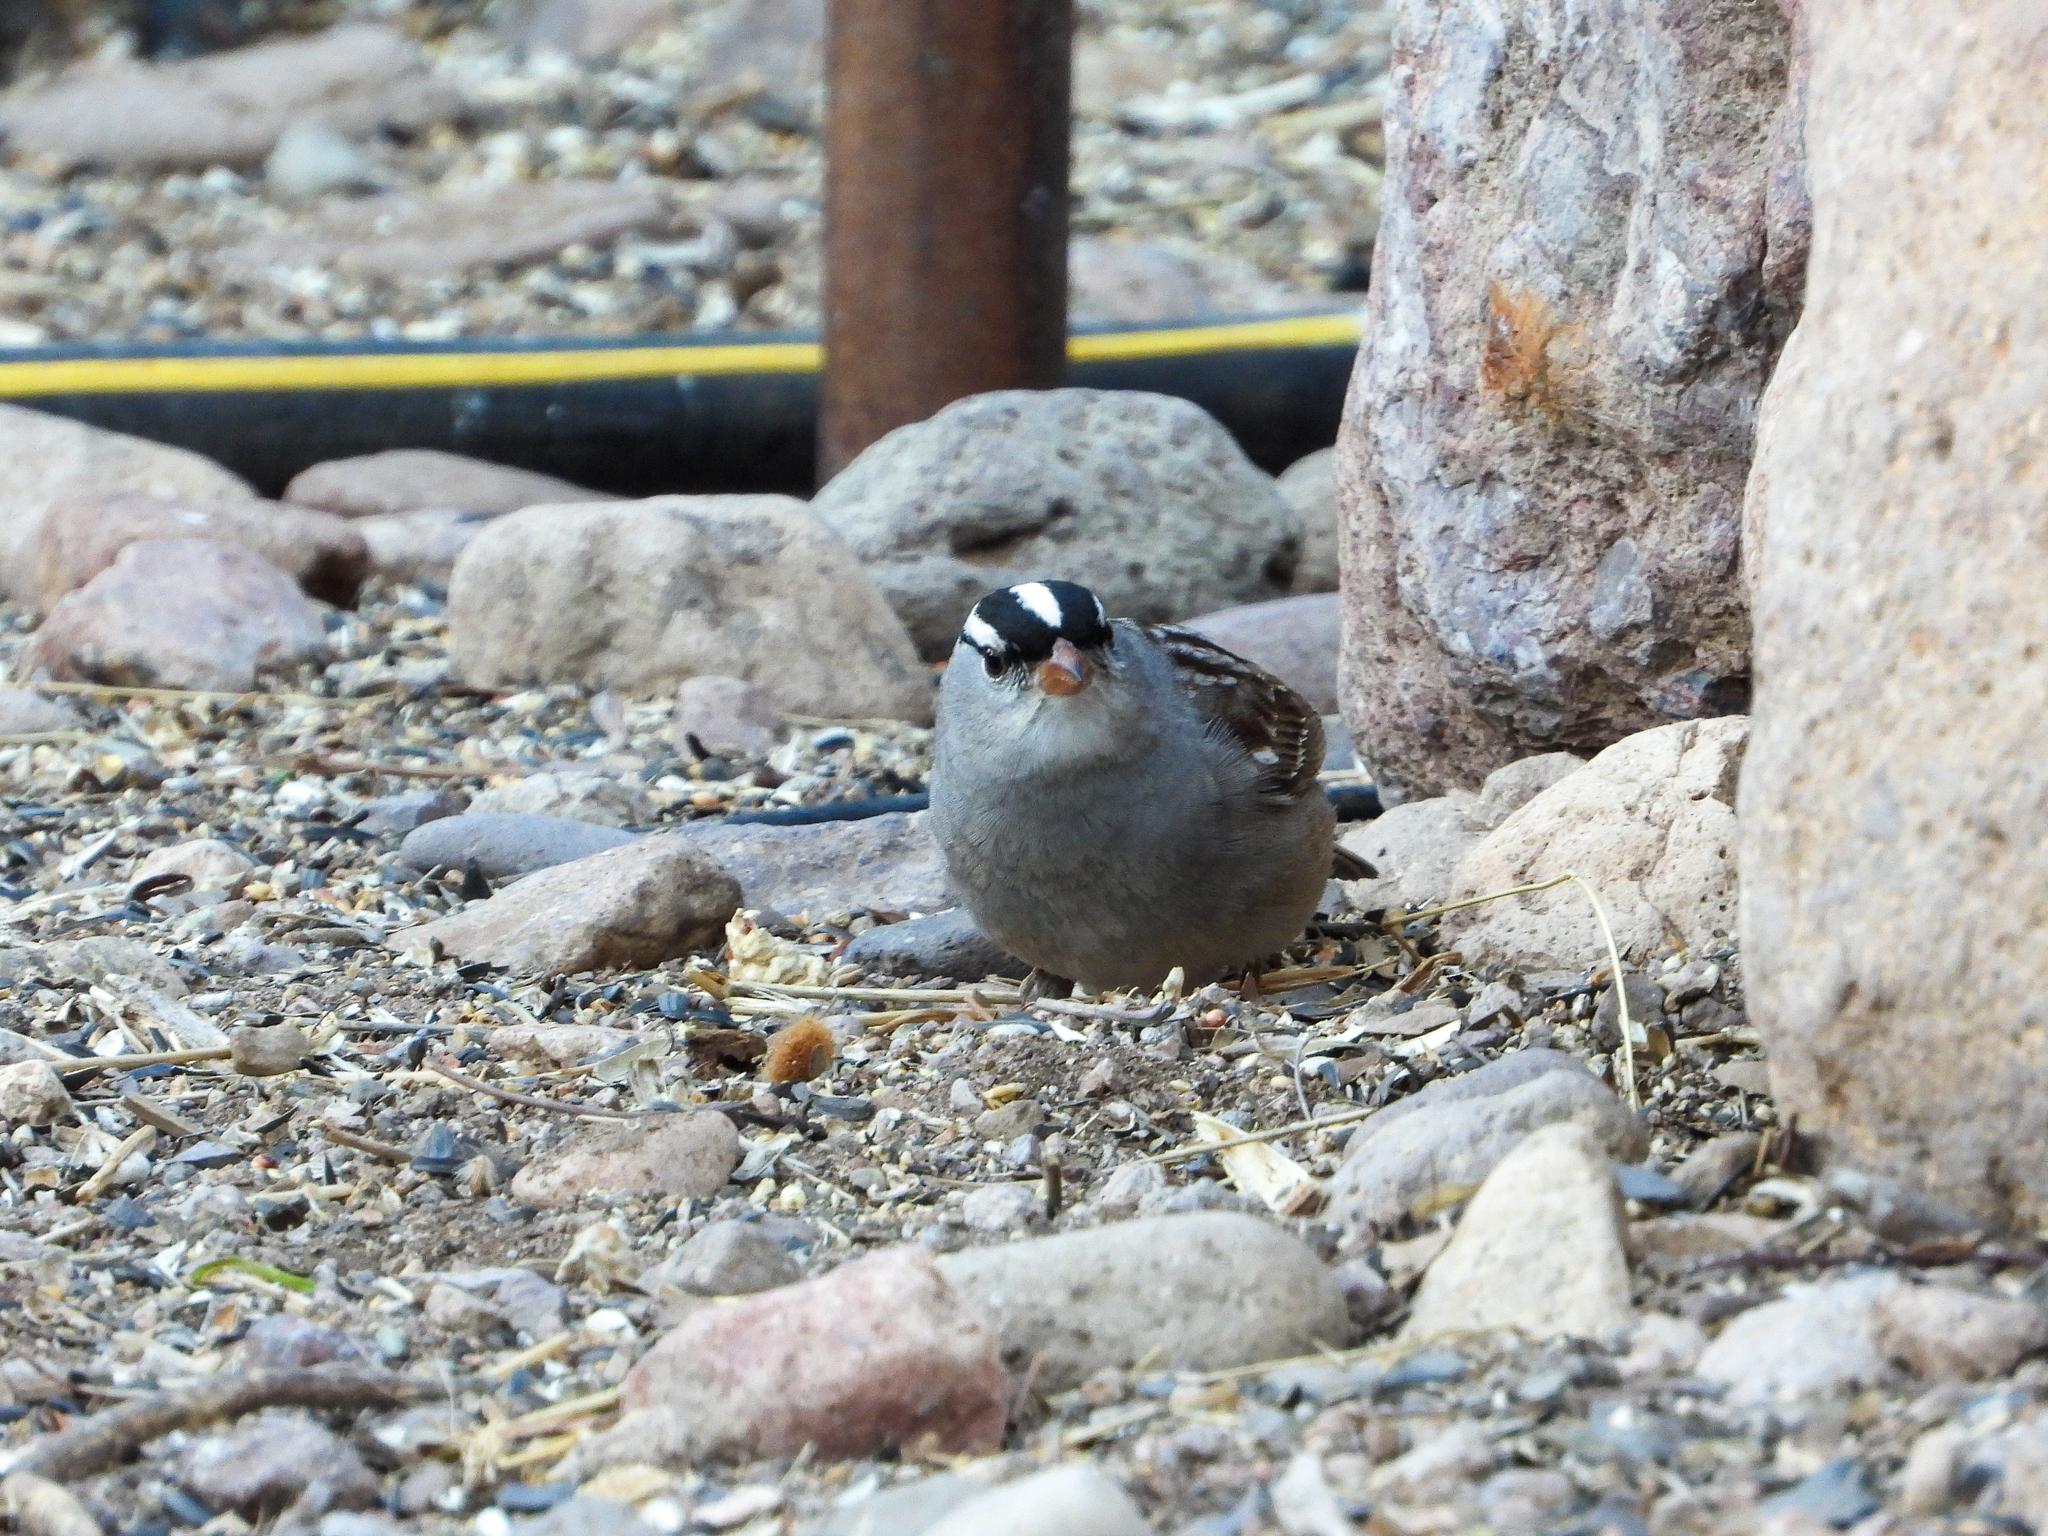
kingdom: Animalia
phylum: Chordata
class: Aves
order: Passeriformes
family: Passerellidae
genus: Zonotrichia
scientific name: Zonotrichia leucophrys
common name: White-crowned sparrow
